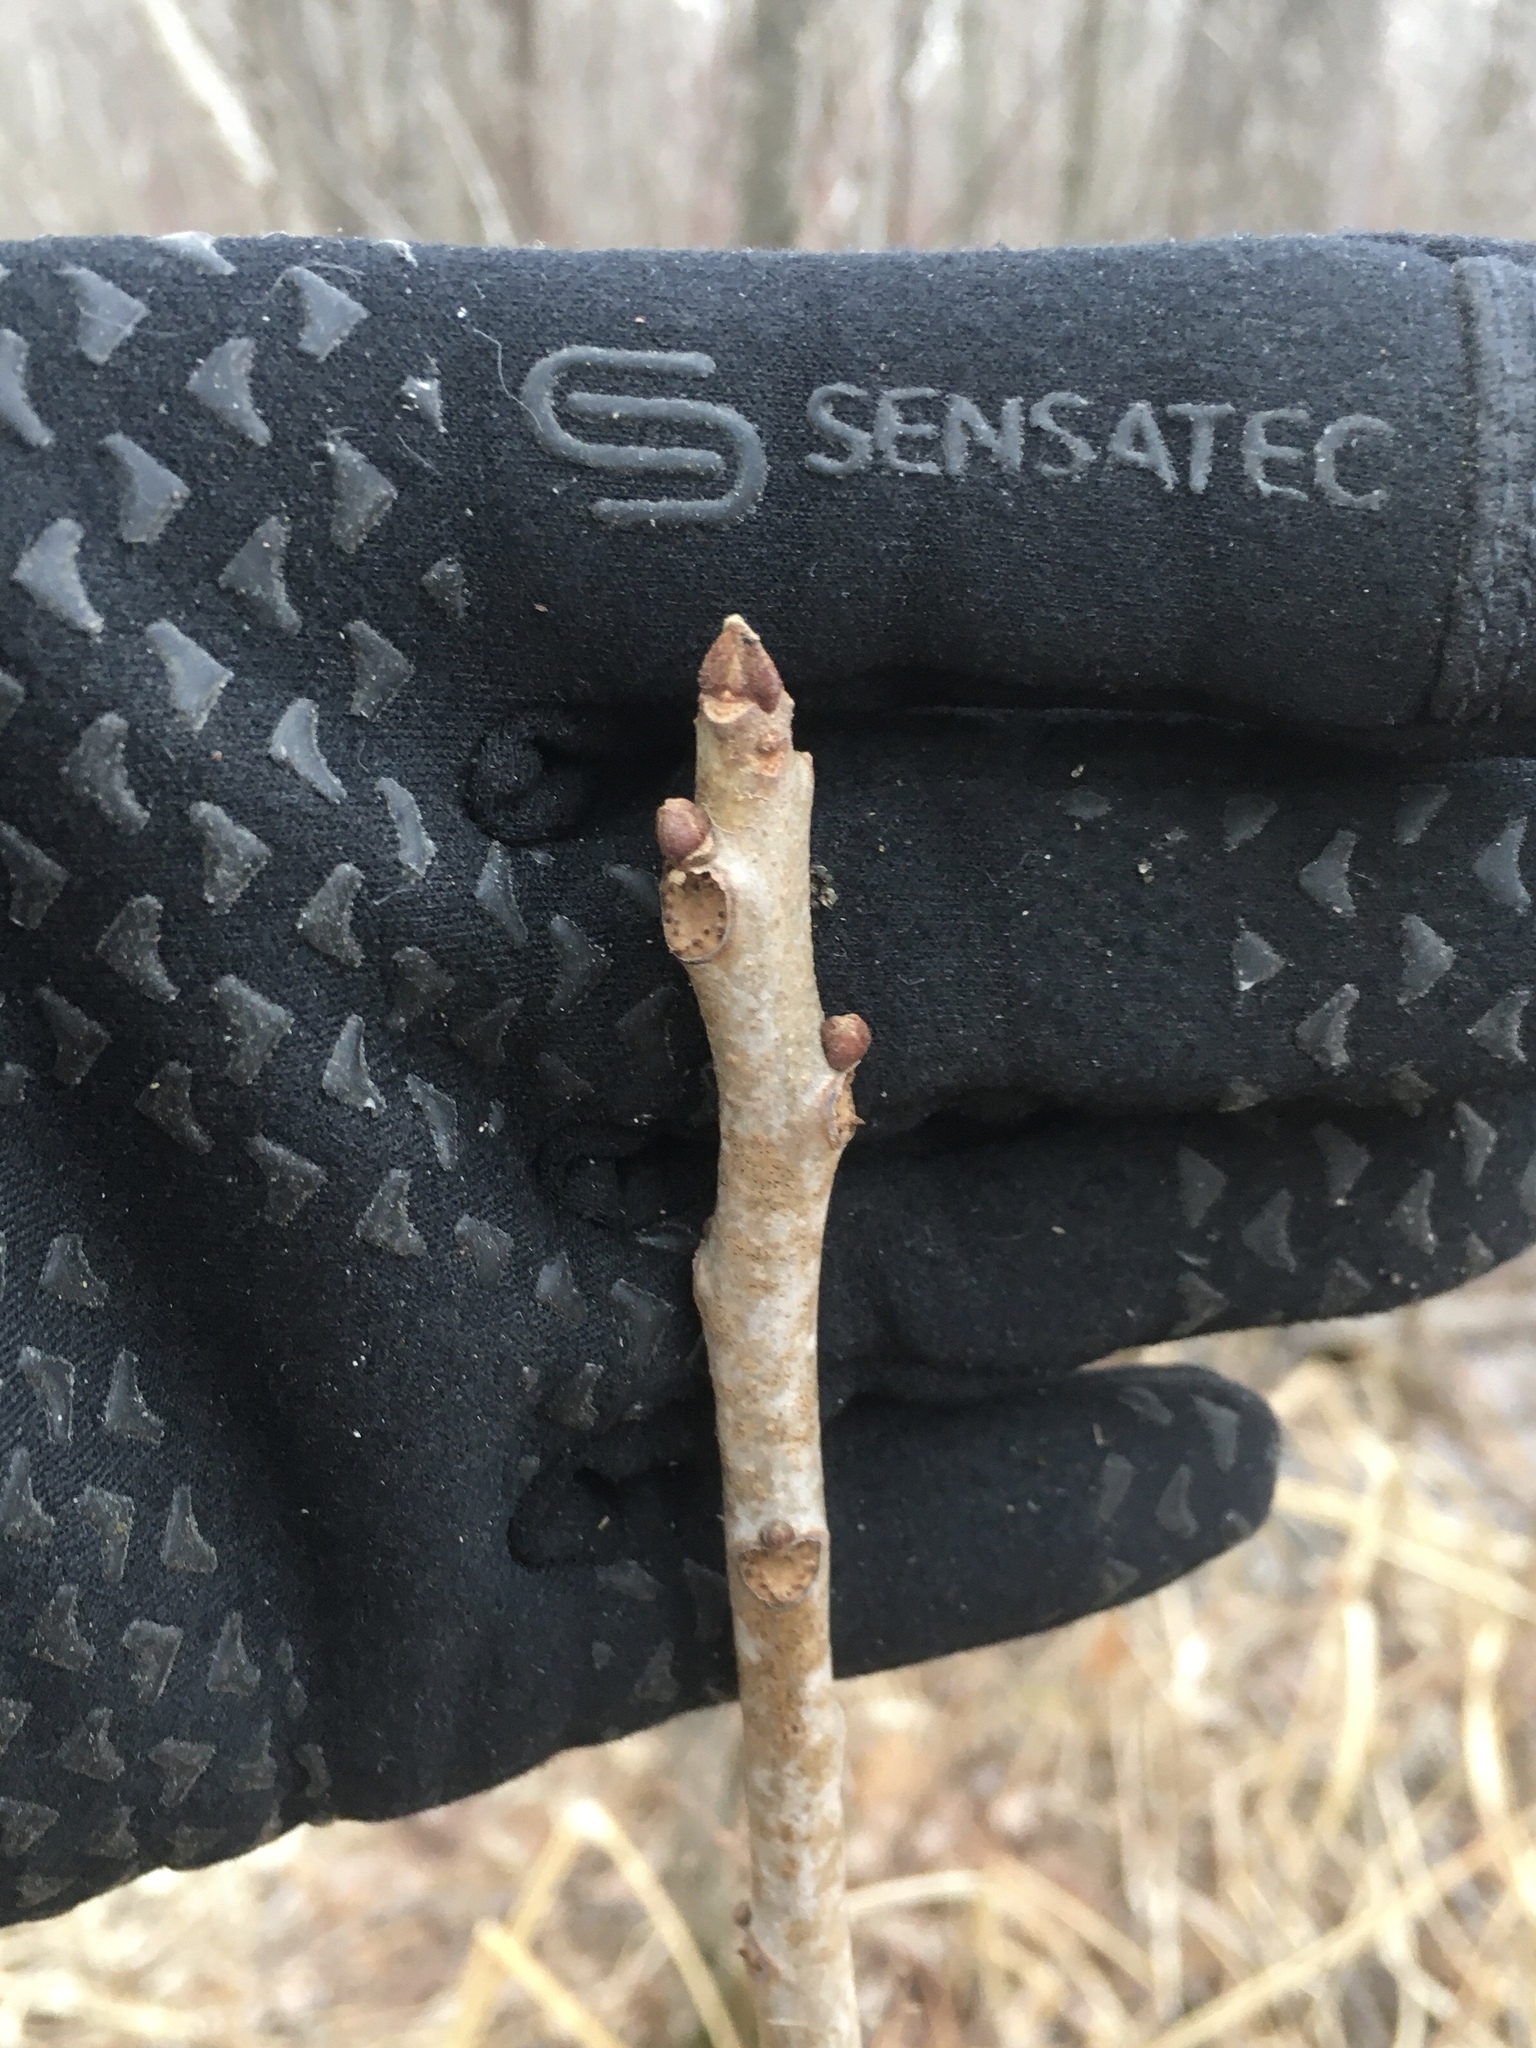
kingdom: Plantae
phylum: Tracheophyta
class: Magnoliopsida
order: Sapindales
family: Anacardiaceae
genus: Toxicodendron
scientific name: Toxicodendron vernix
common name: Poison sumac
